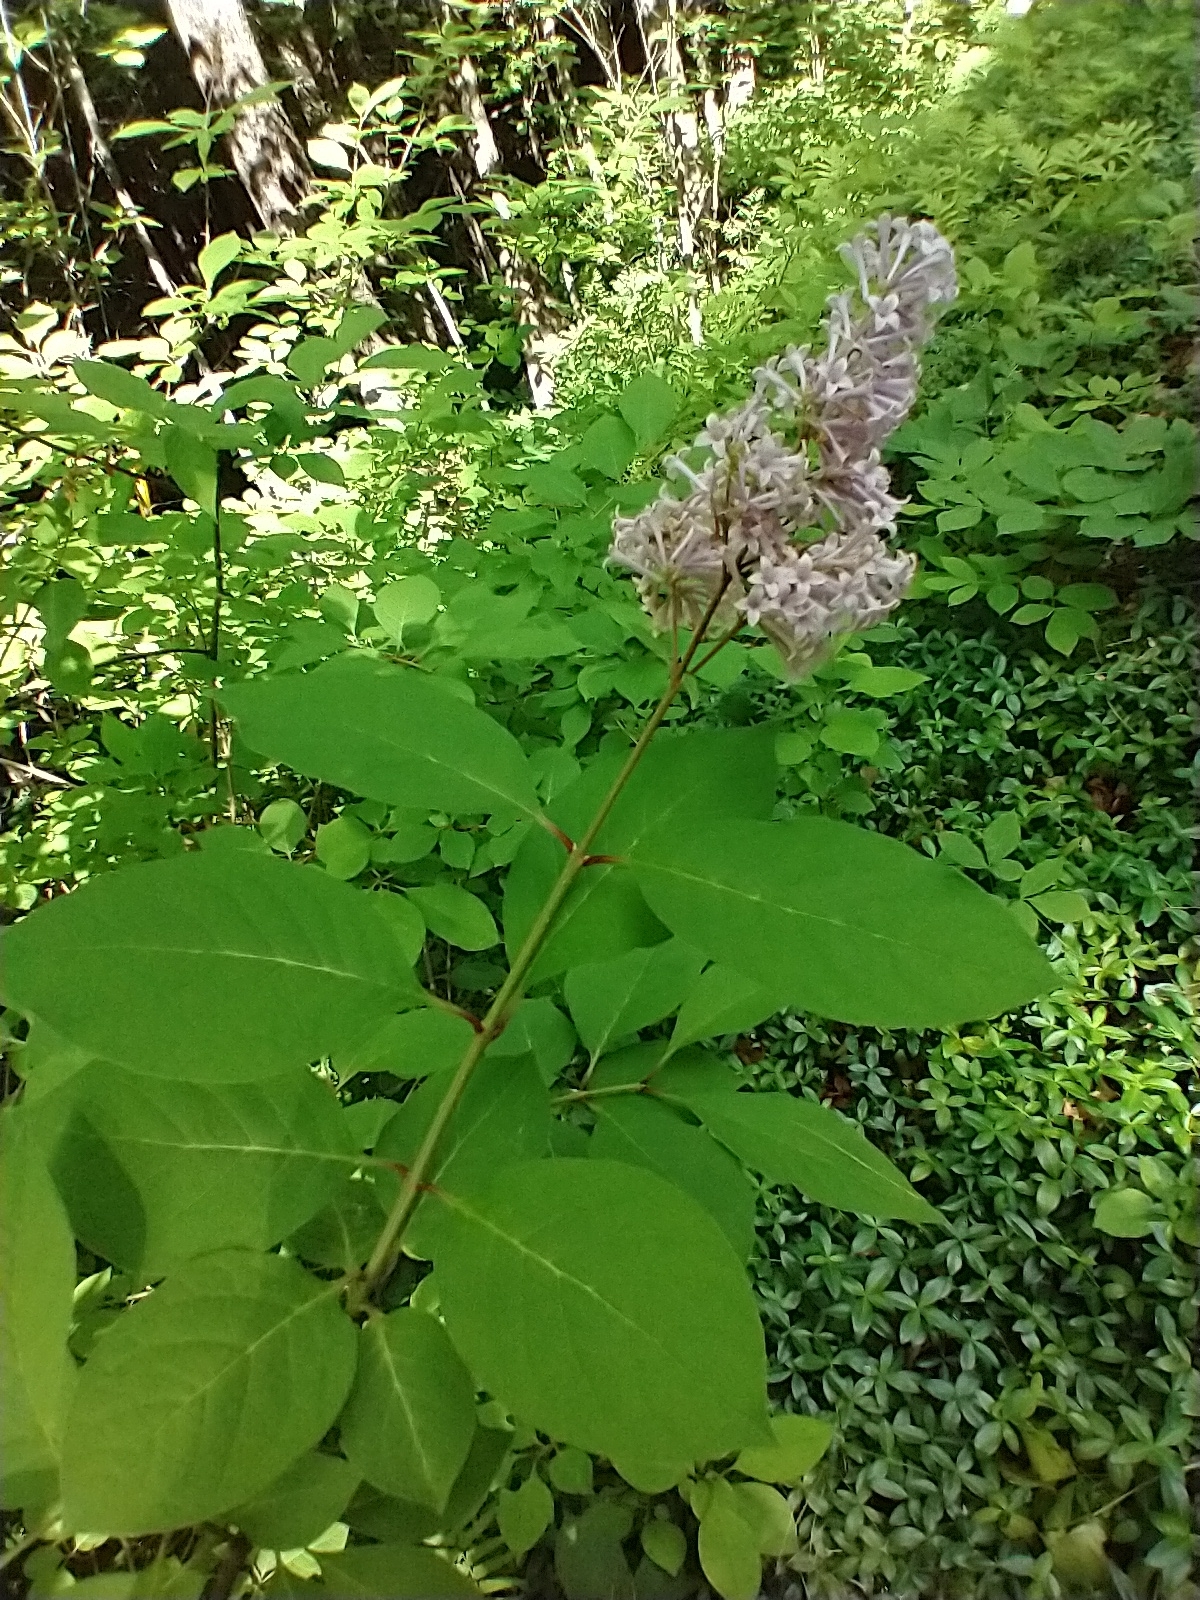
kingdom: Plantae
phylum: Tracheophyta
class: Magnoliopsida
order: Lamiales
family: Oleaceae
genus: Syringa
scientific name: Syringa josikaea
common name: Hungarian lilac
